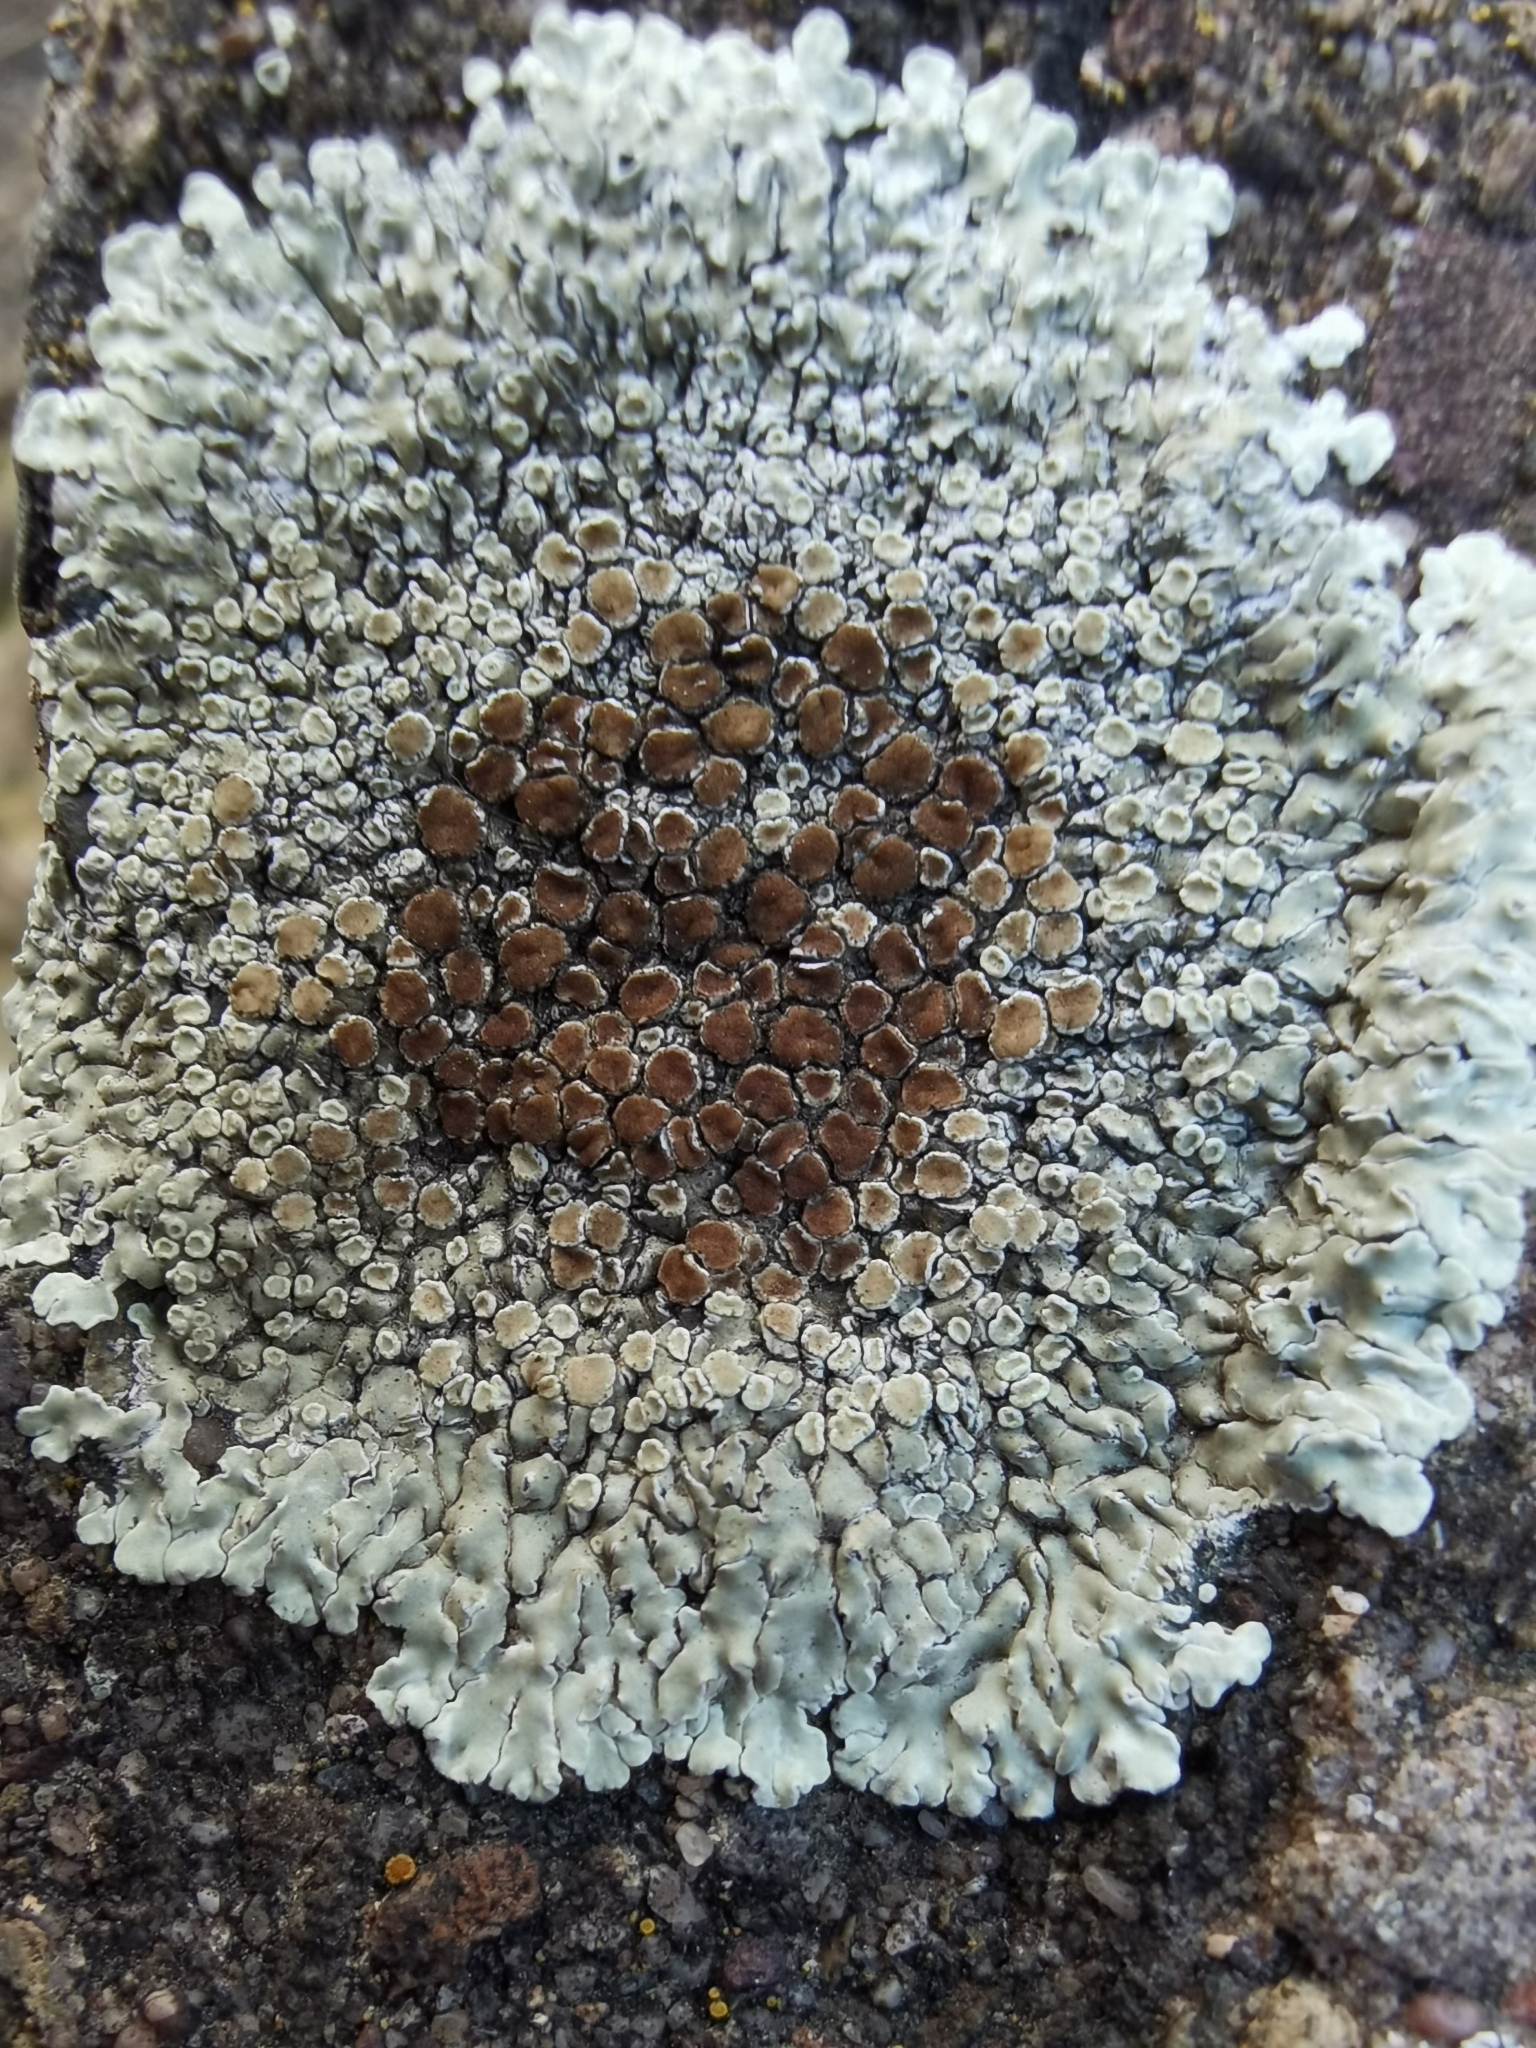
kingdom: Fungi
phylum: Ascomycota
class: Lecanoromycetes
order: Lecanorales
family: Lecanoraceae
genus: Protoparmeliopsis
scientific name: Protoparmeliopsis muralis
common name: Stonewall rim lichen
